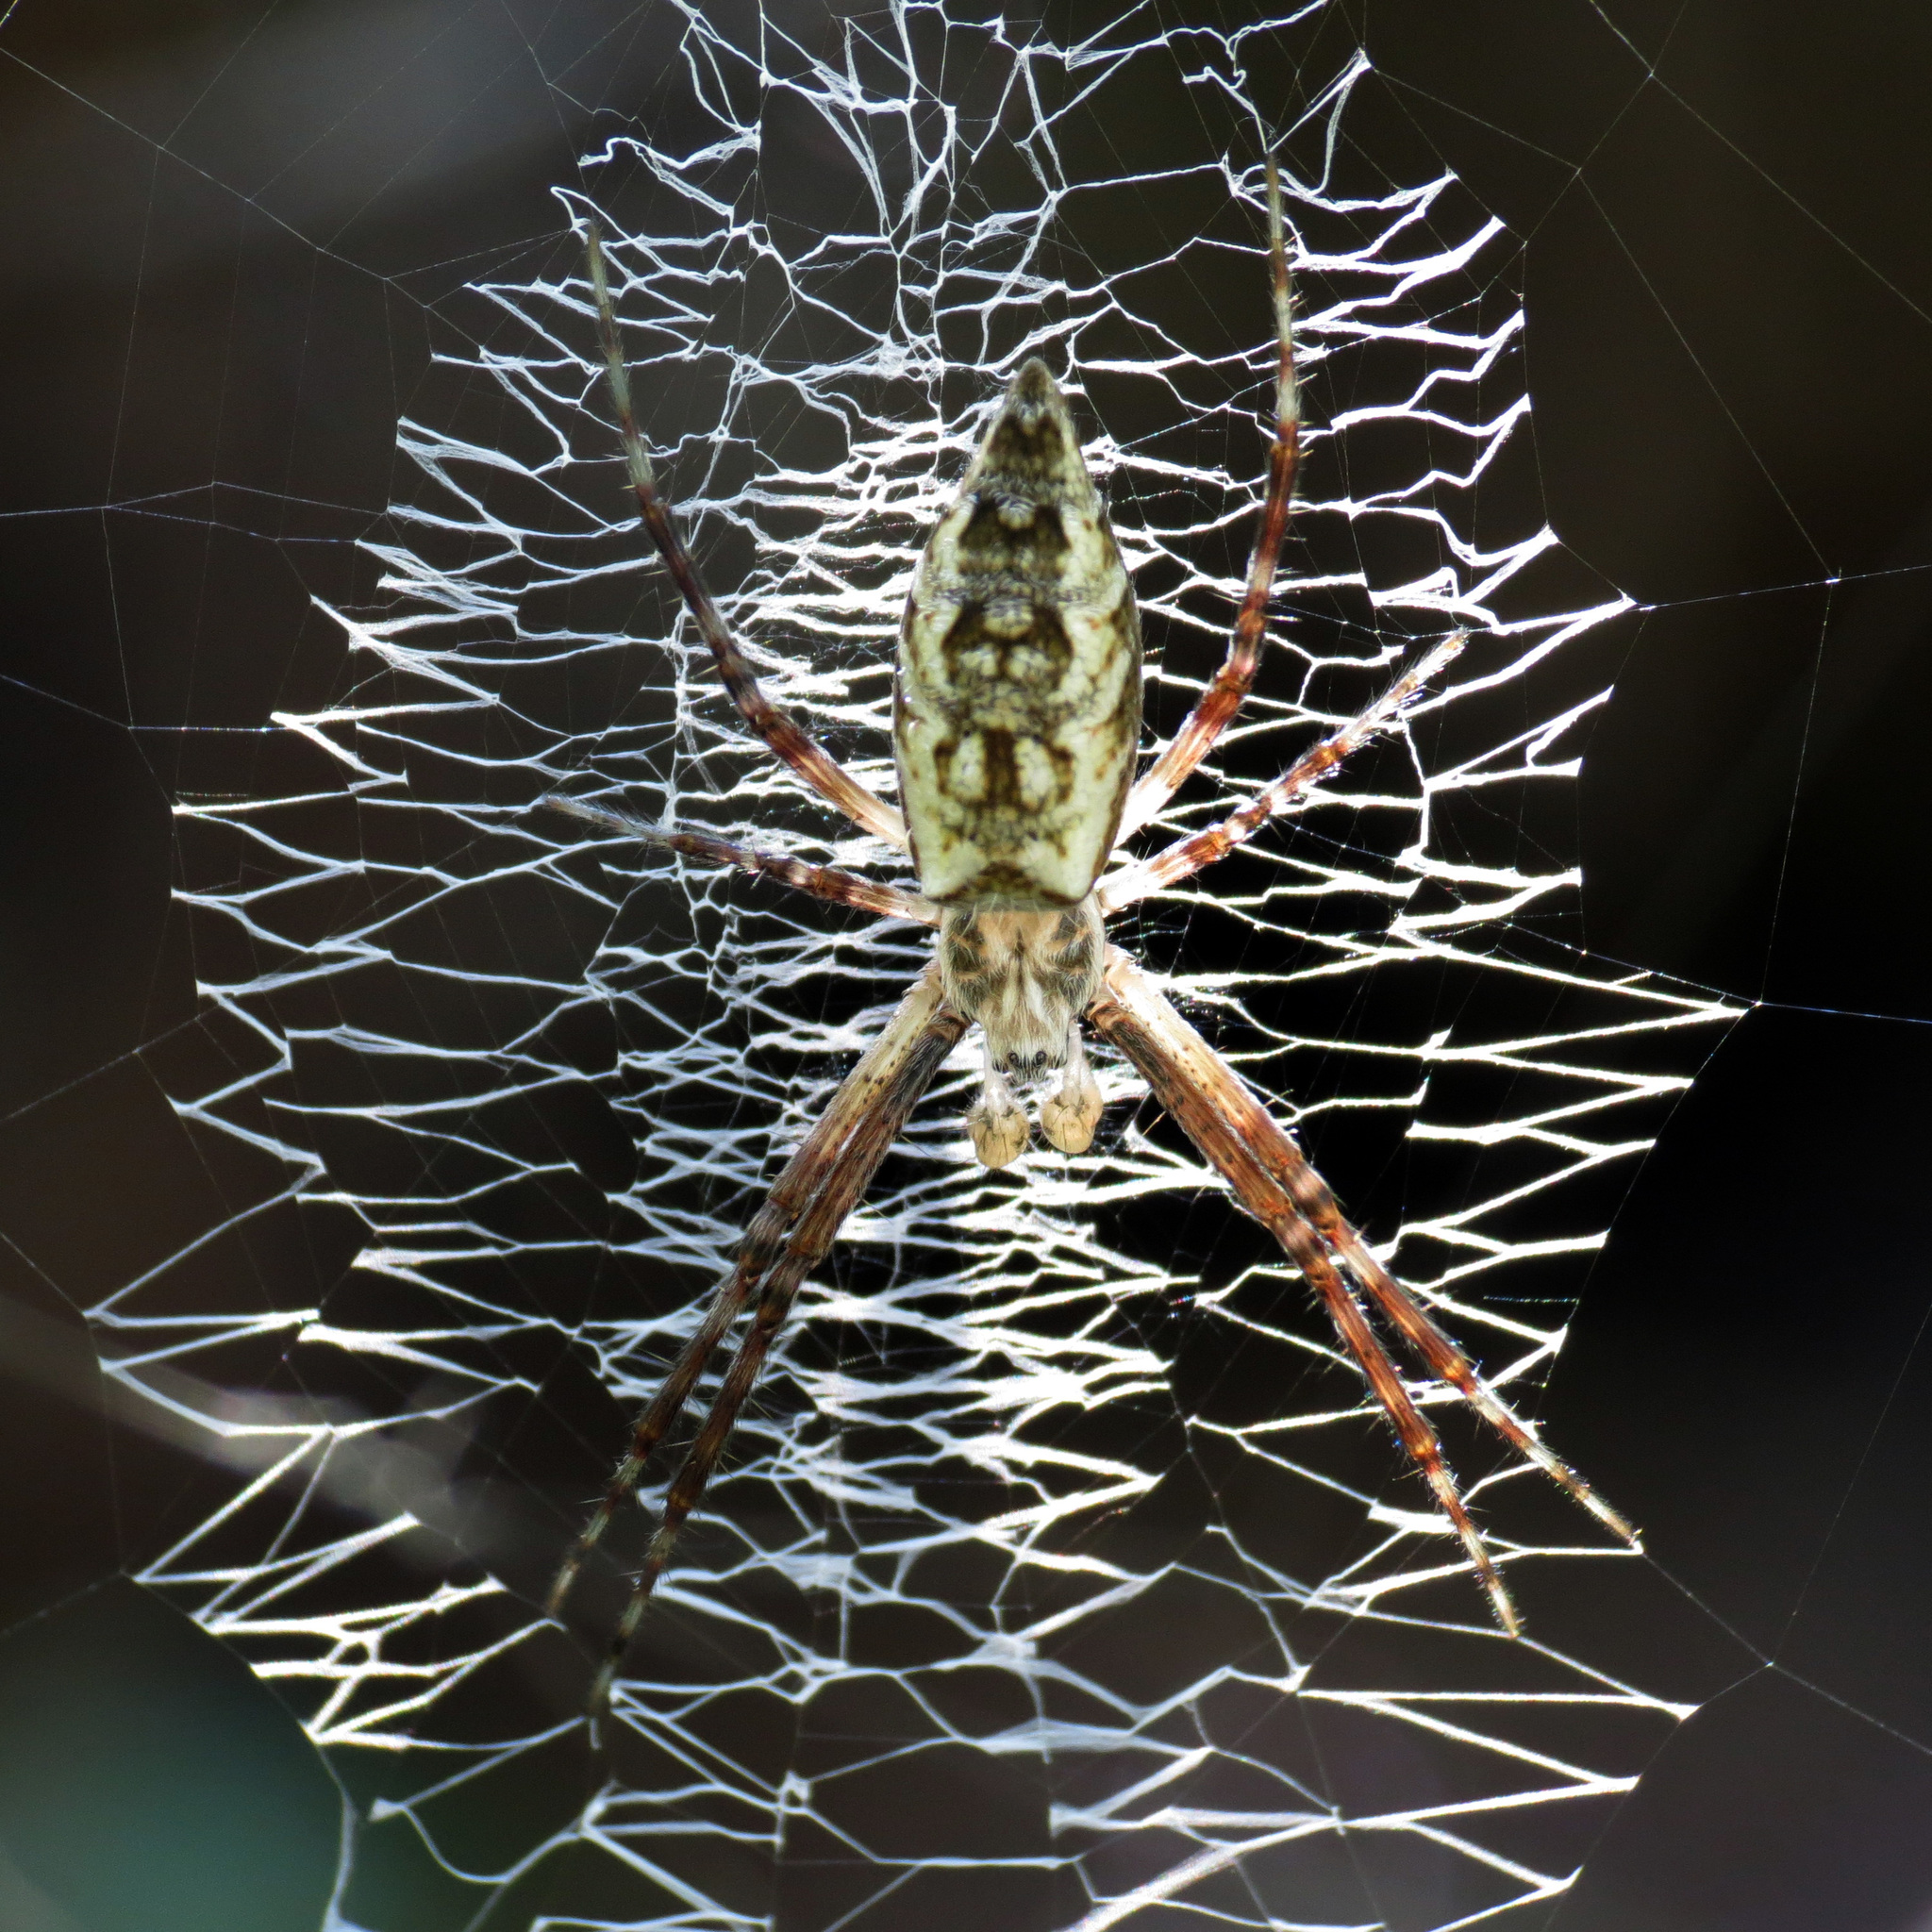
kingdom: Animalia
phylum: Arthropoda
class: Arachnida
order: Araneae
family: Araneidae
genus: Argiope
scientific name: Argiope aurantia
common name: Orb weavers
